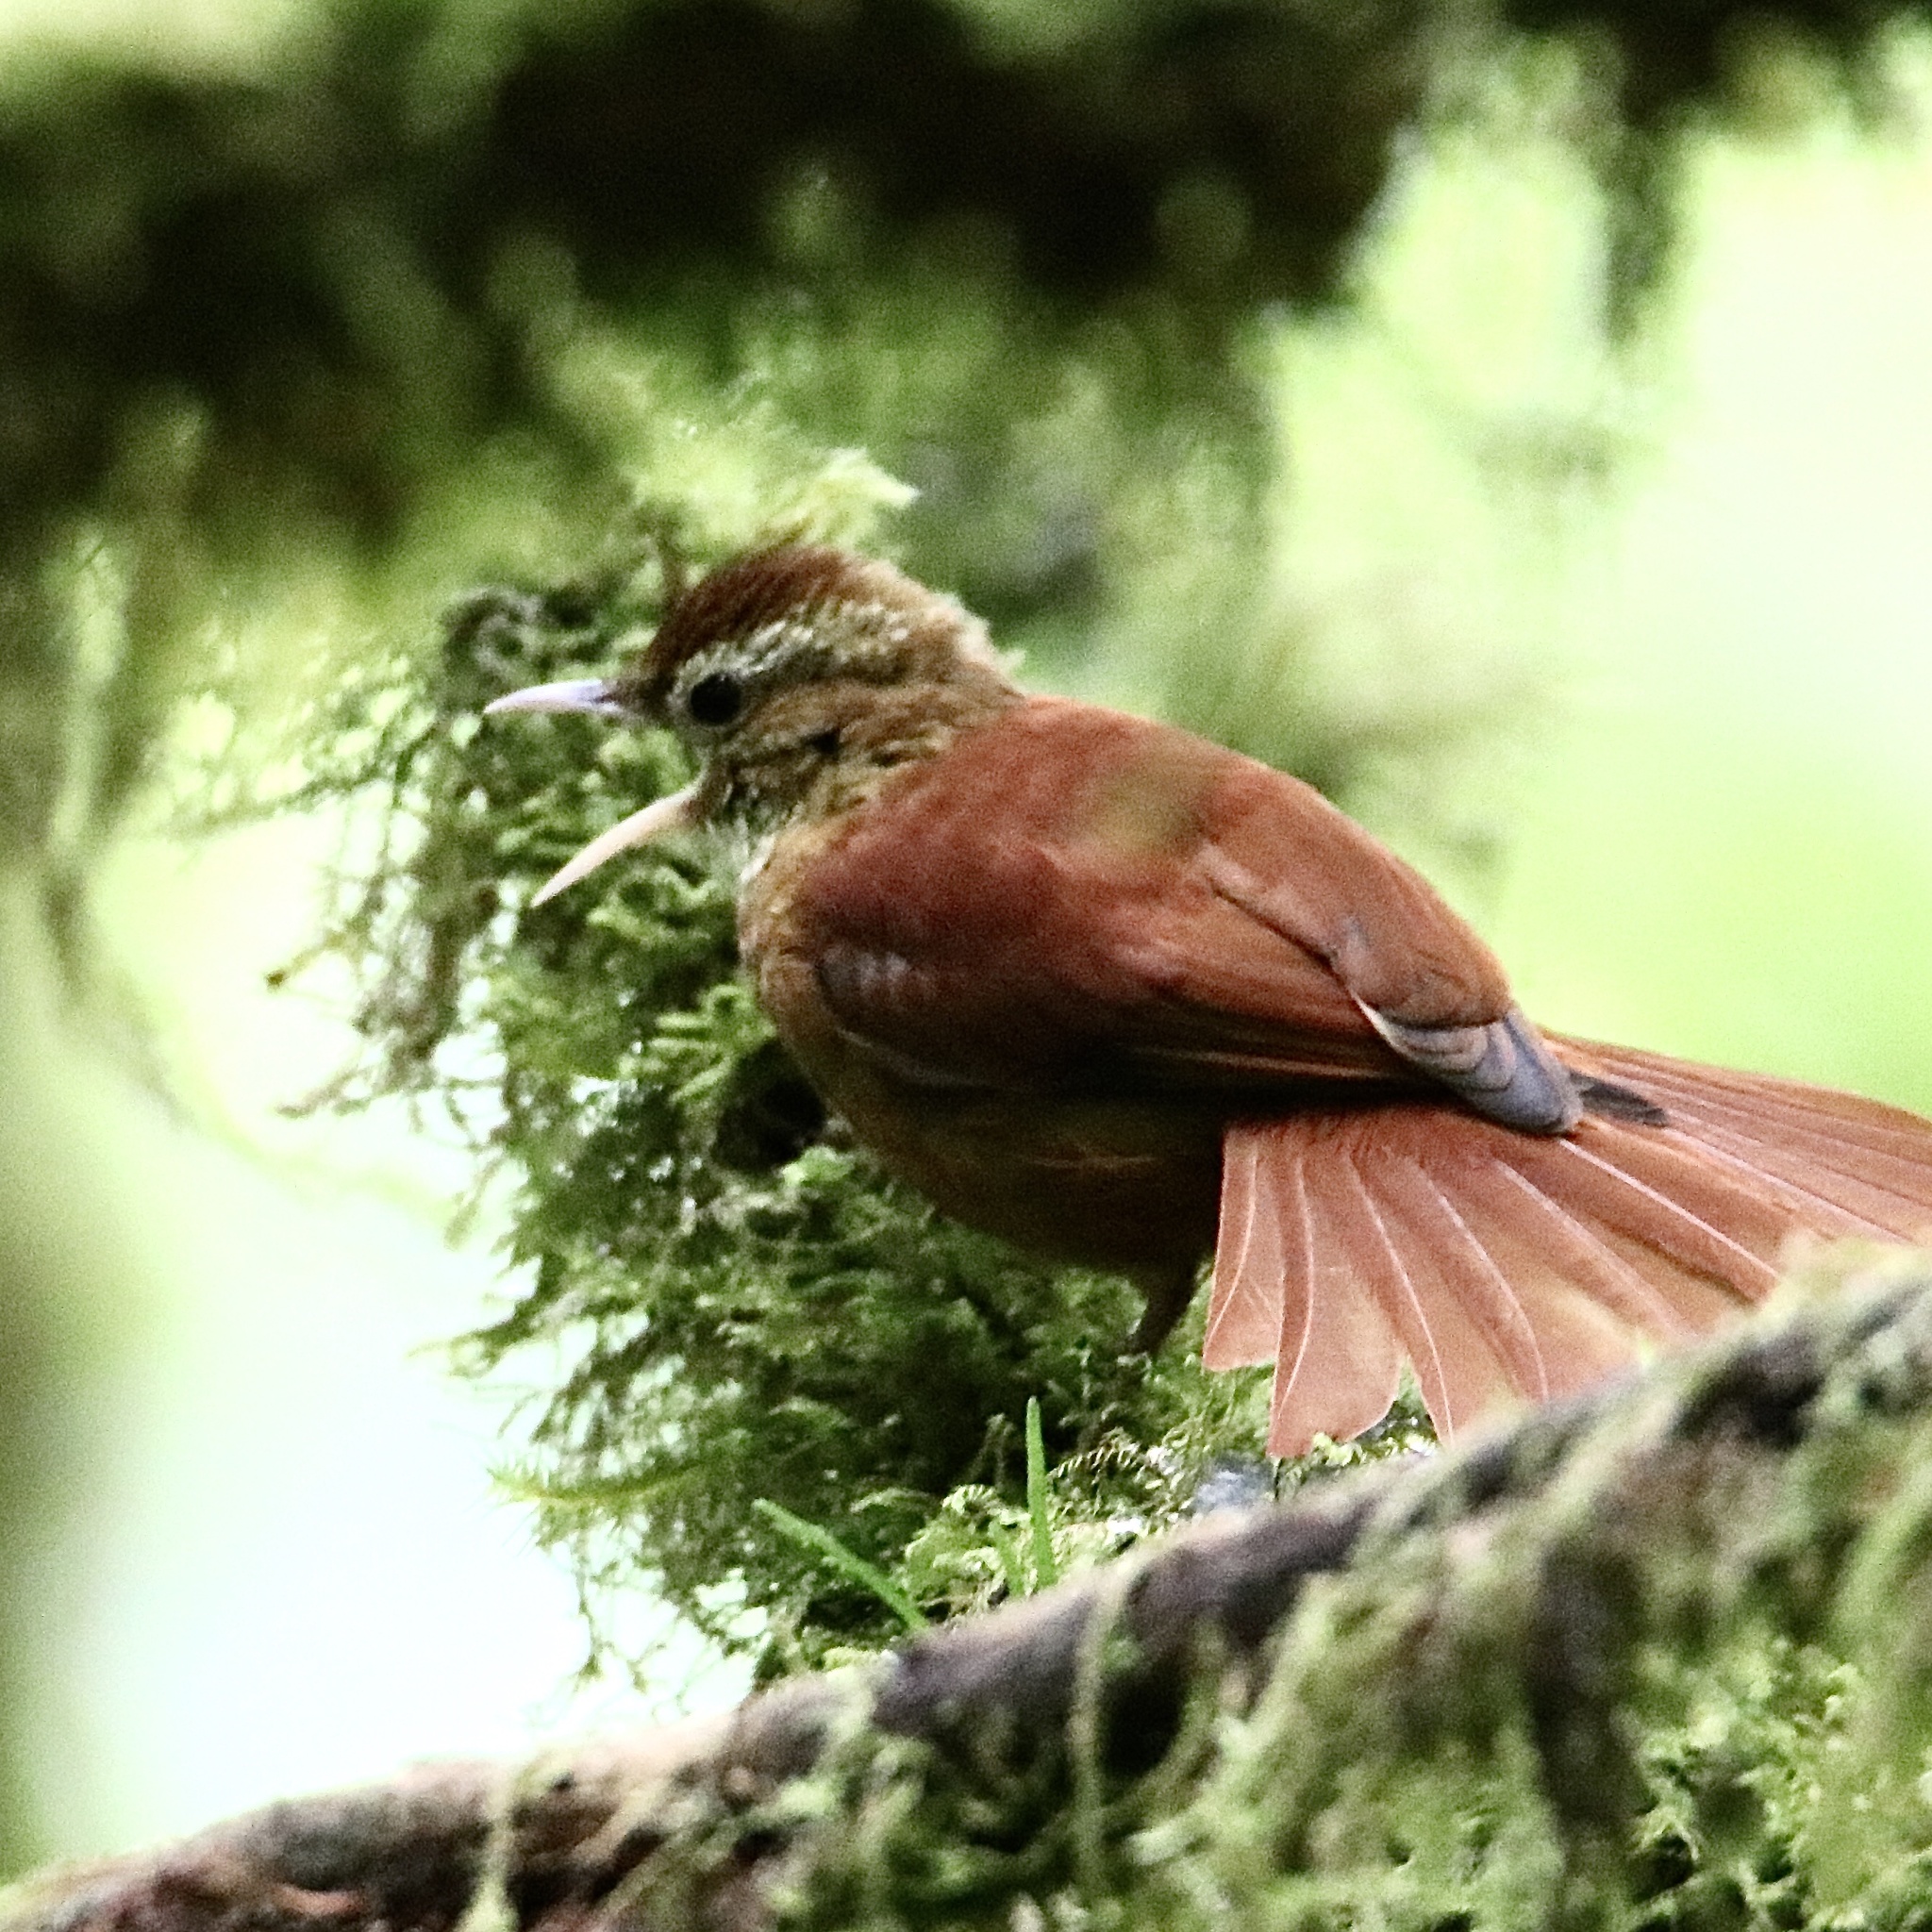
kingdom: Animalia
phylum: Chordata
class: Aves
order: Passeriformes
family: Furnariidae
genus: Margarornis
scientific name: Margarornis rubiginosus
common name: Ruddy treerunner
